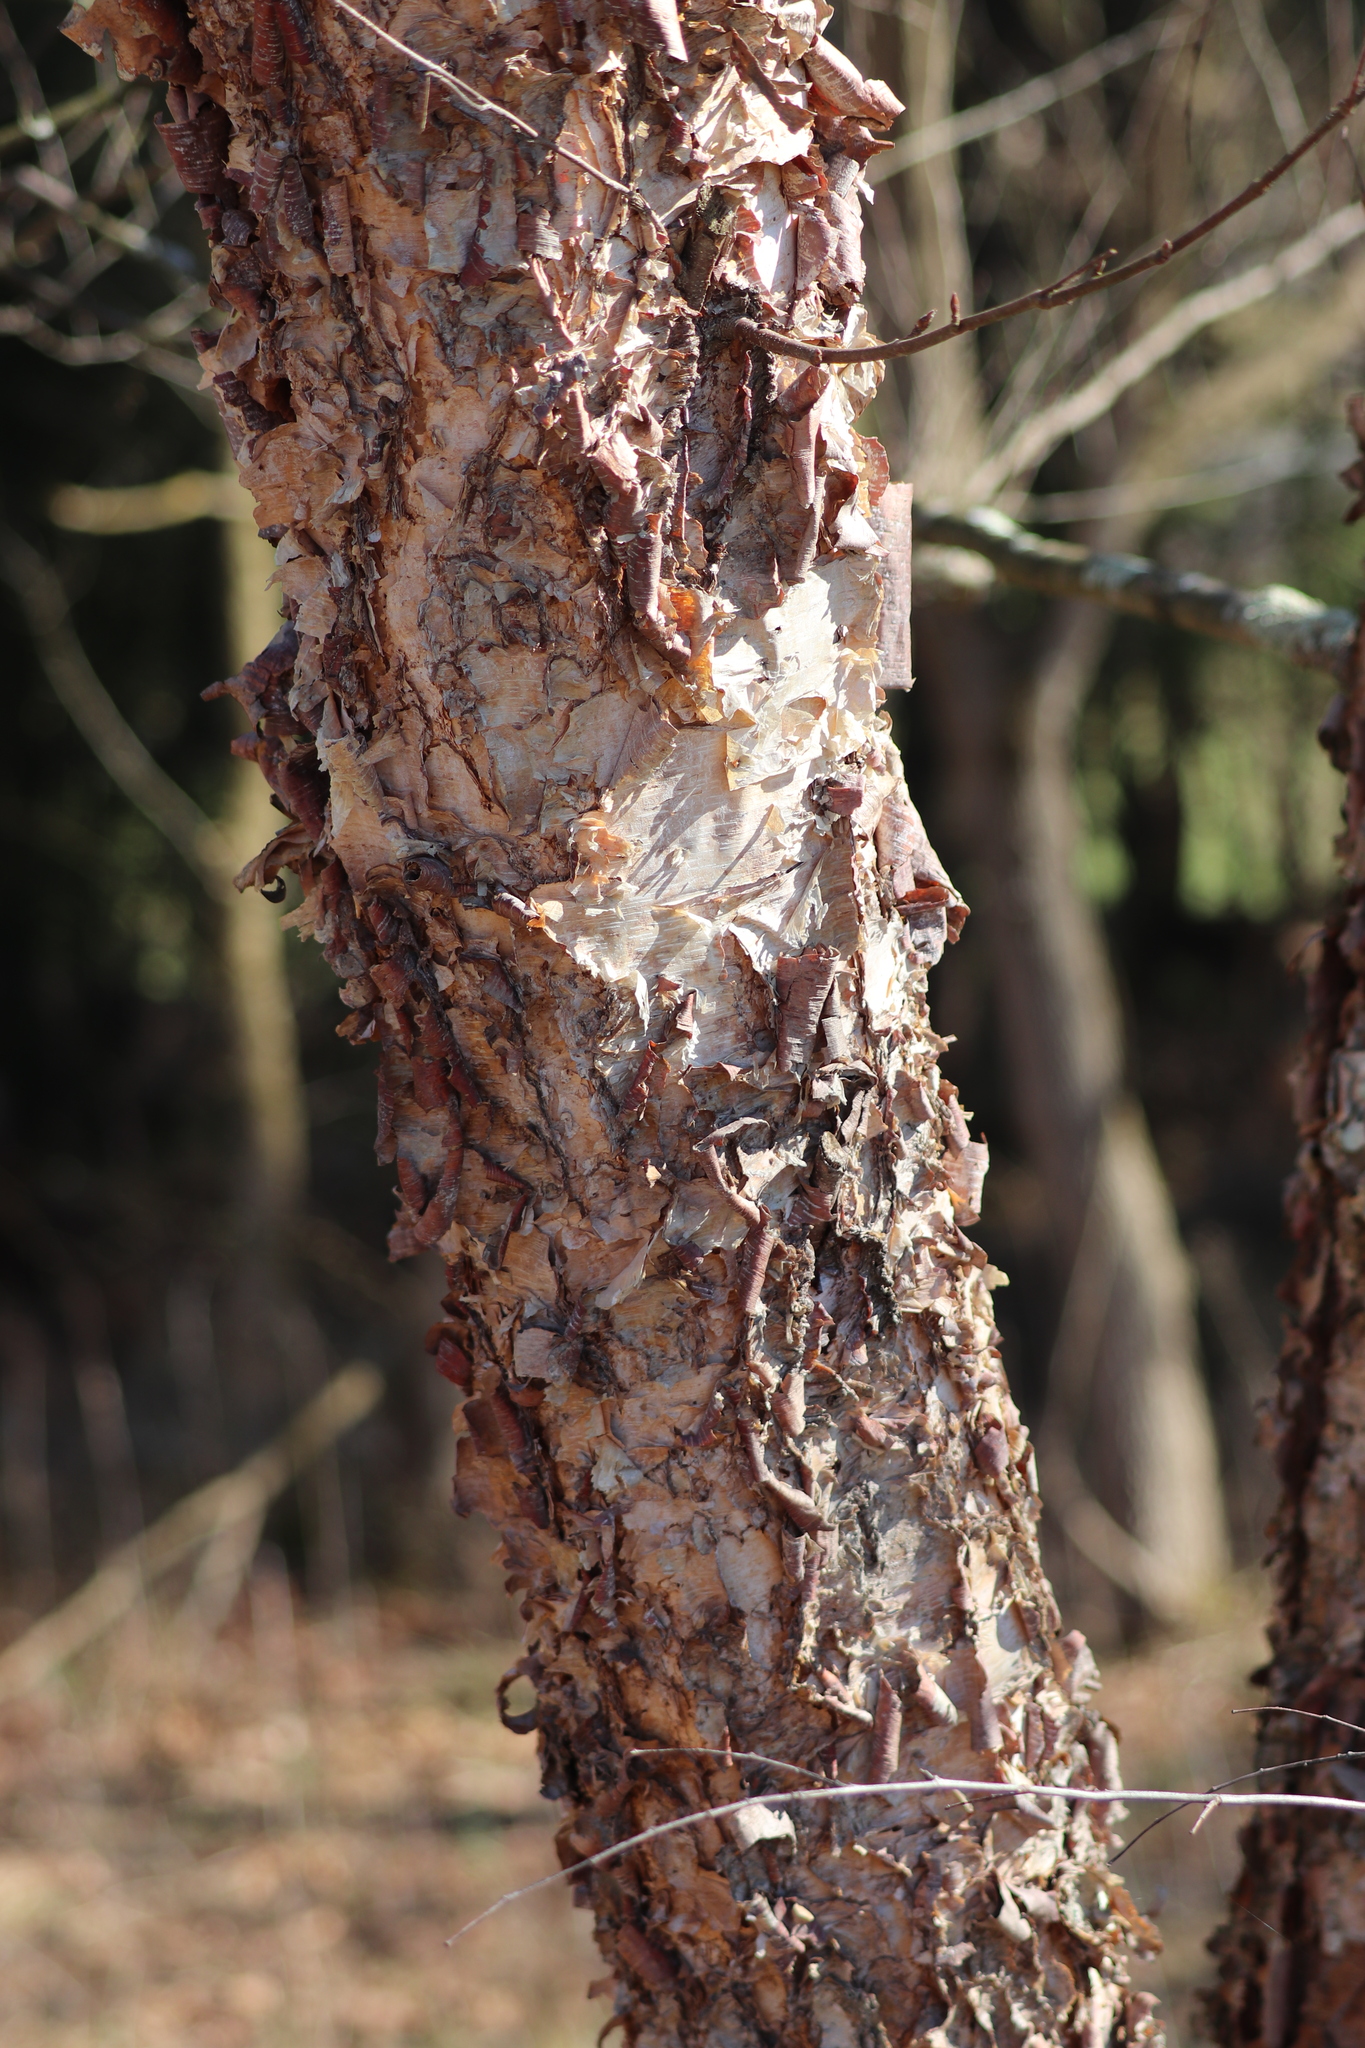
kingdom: Plantae
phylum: Tracheophyta
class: Magnoliopsida
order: Fagales
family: Betulaceae
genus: Betula
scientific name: Betula nigra
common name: Black birch
